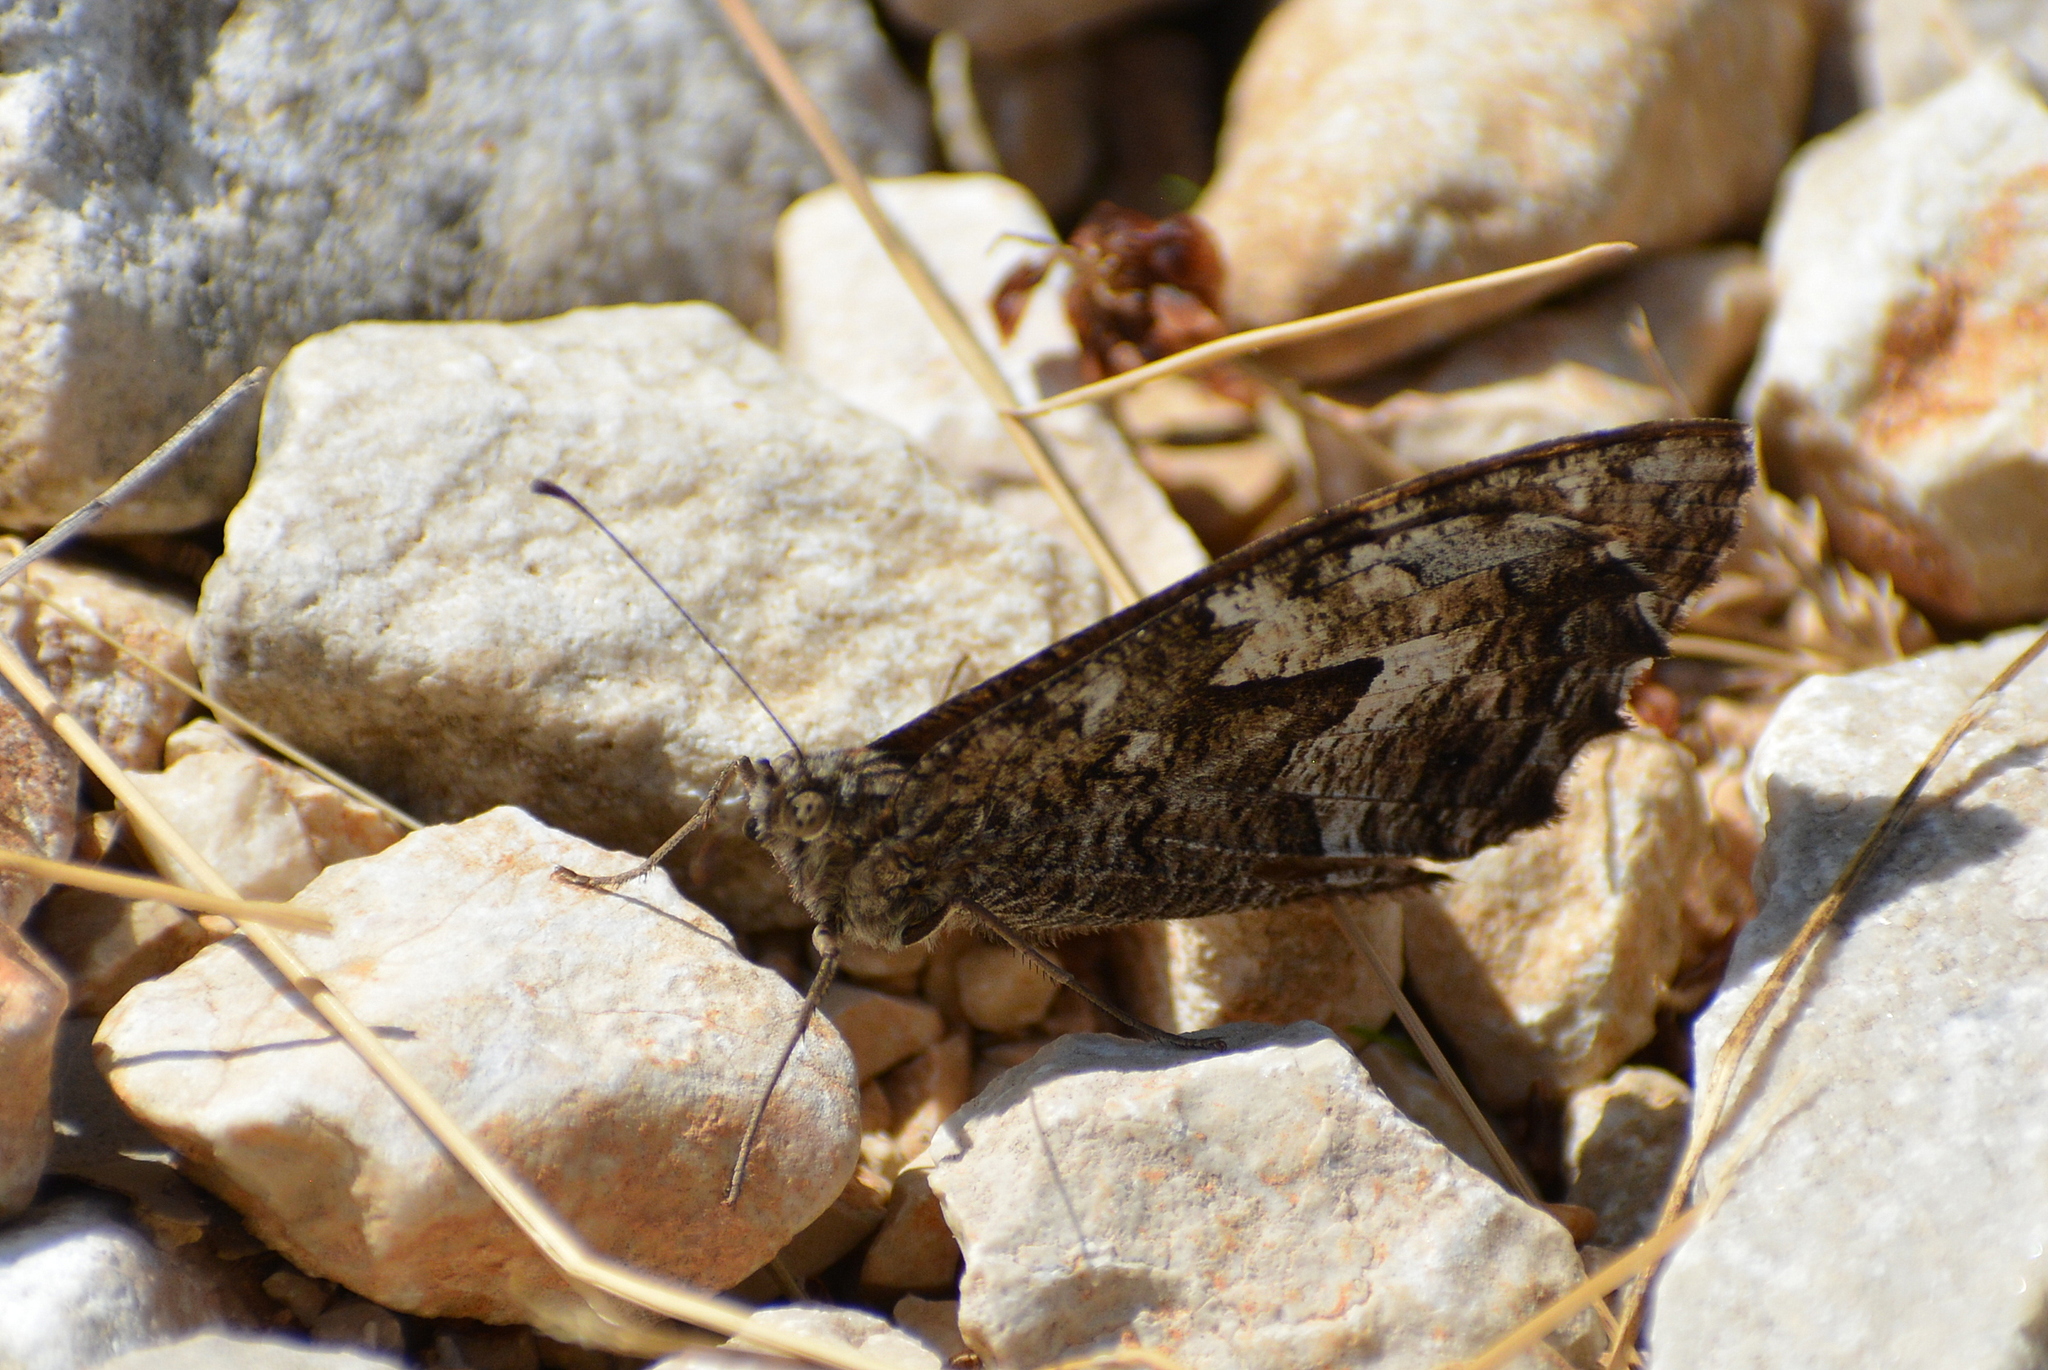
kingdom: Animalia
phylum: Arthropoda
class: Insecta
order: Lepidoptera
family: Nymphalidae
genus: Hipparchia
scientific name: Hipparchia semele
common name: Grayling
